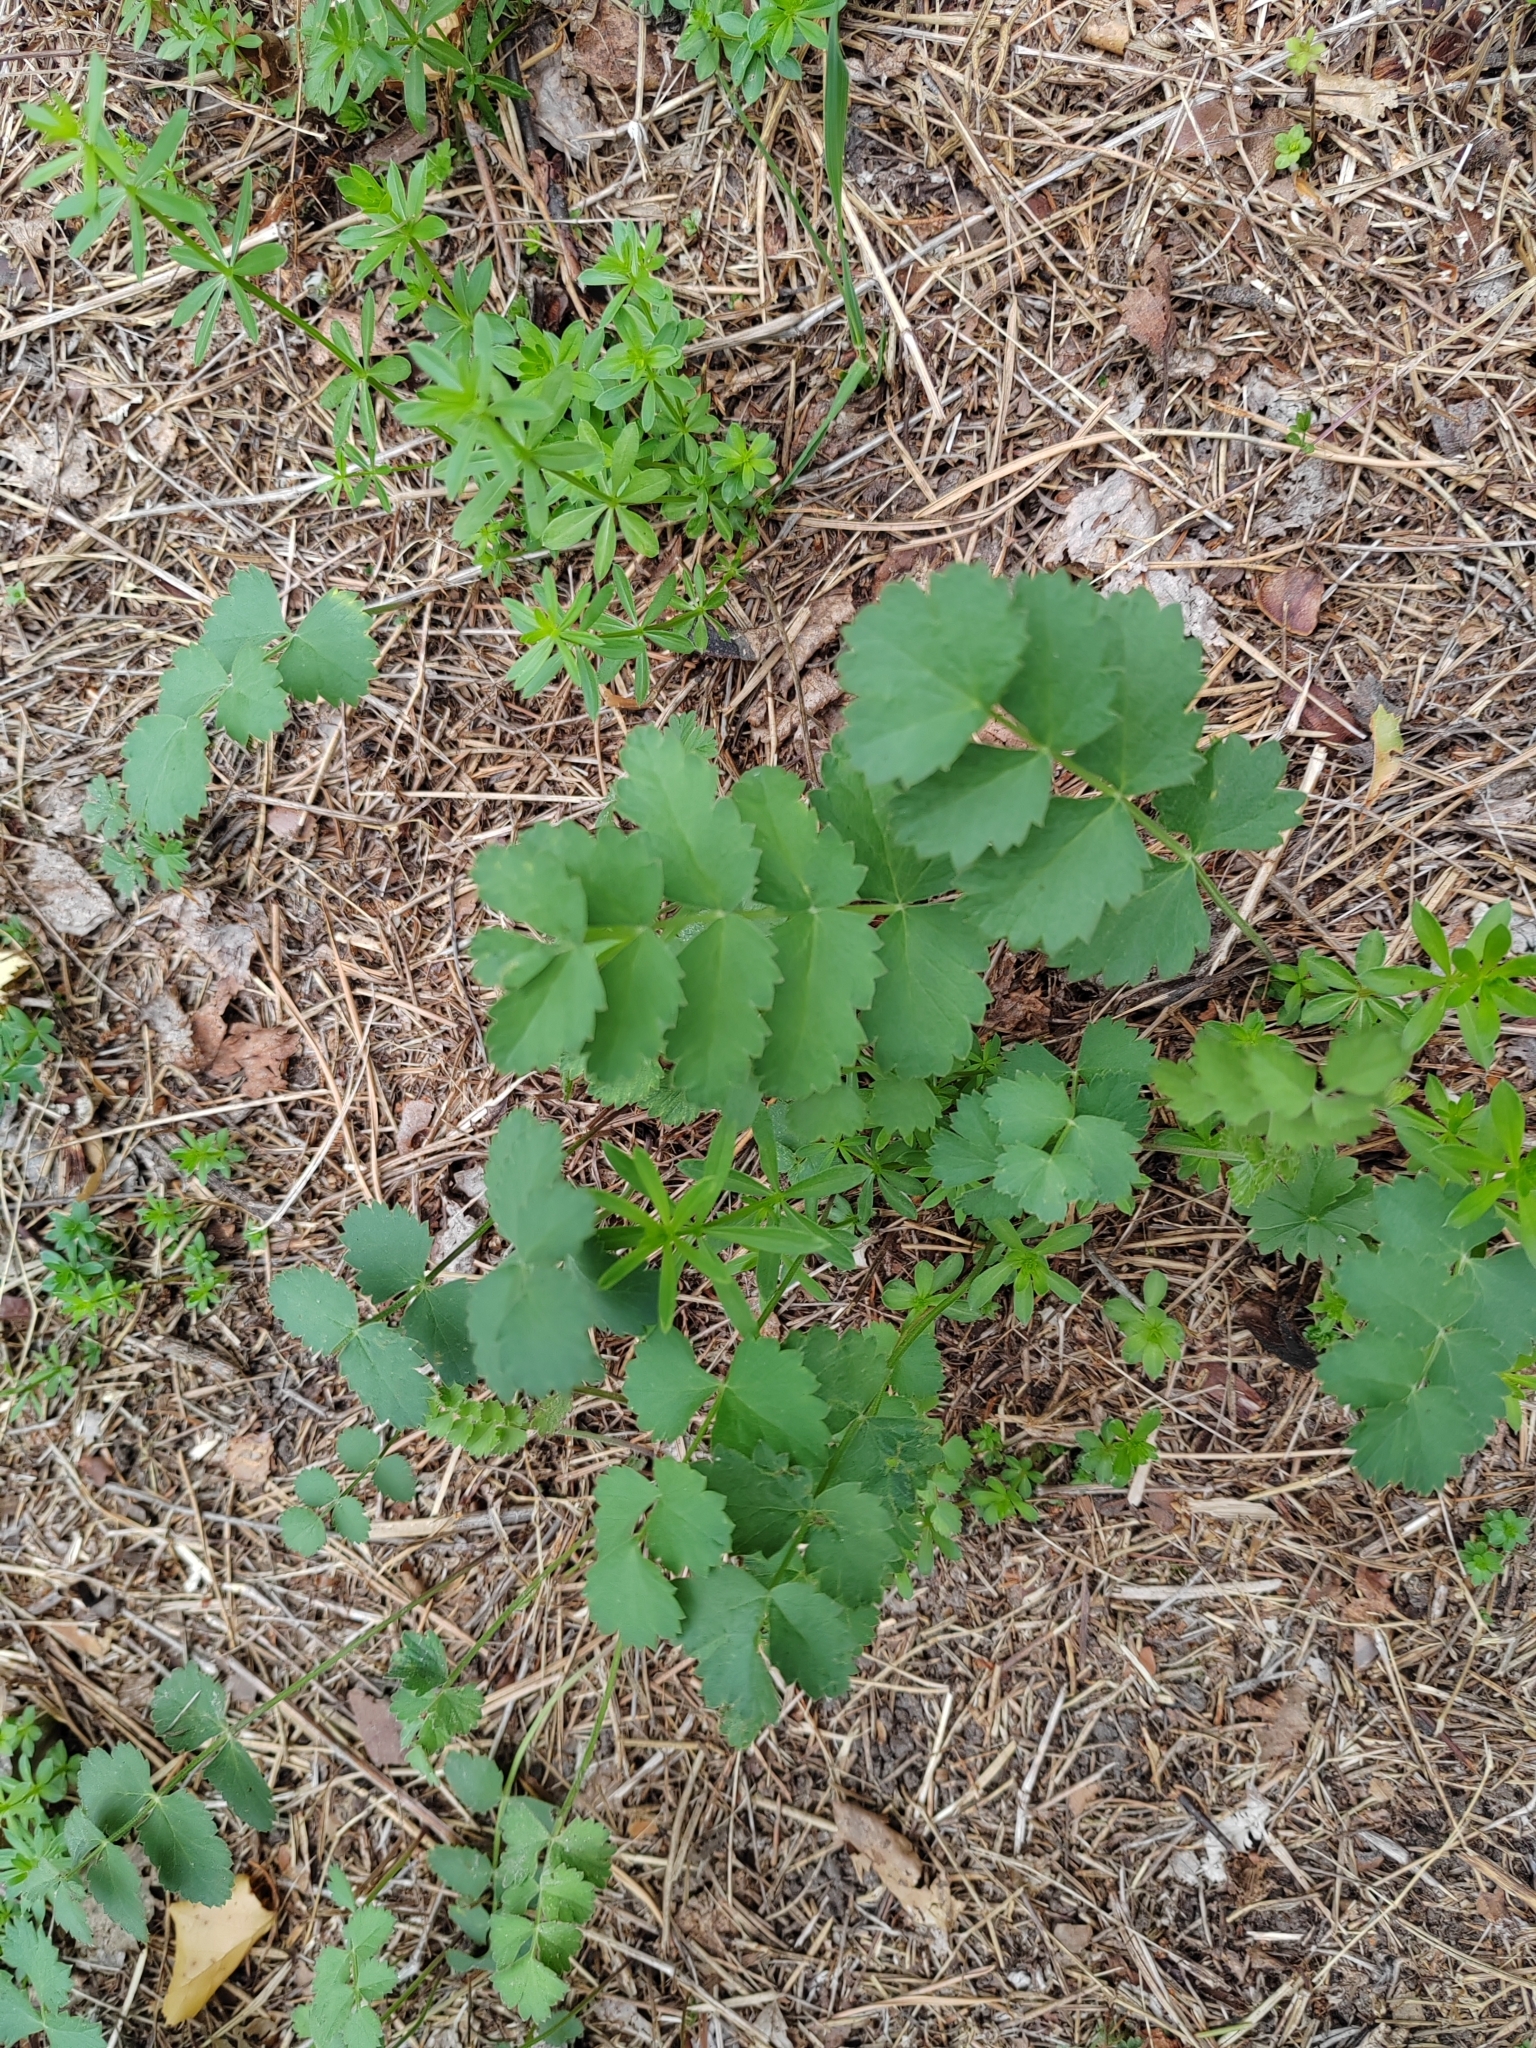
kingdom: Plantae
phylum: Tracheophyta
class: Magnoliopsida
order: Apiales
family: Apiaceae
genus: Pimpinella
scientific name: Pimpinella saxifraga
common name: Burnet-saxifrage
